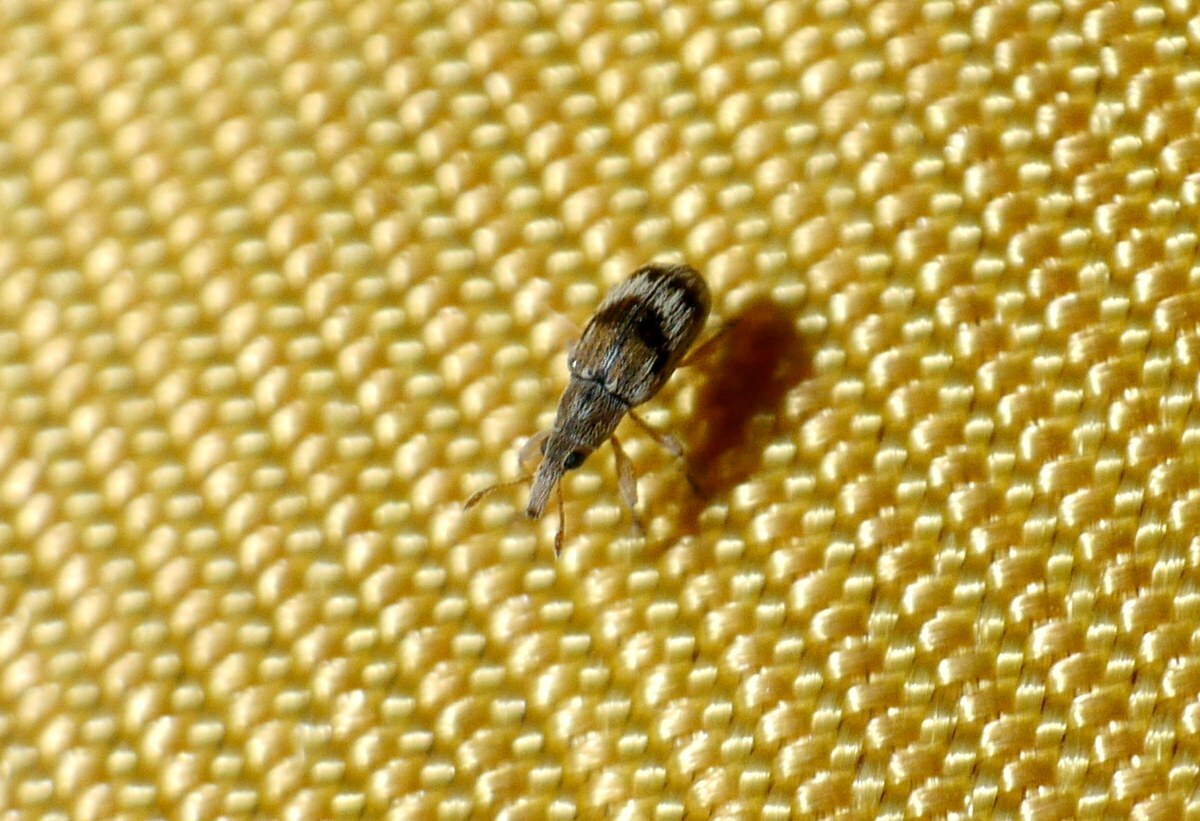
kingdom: Animalia
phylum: Arthropoda
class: Insecta
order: Coleoptera
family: Apionidae
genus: Taeniapion
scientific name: Taeniapion urticarium
